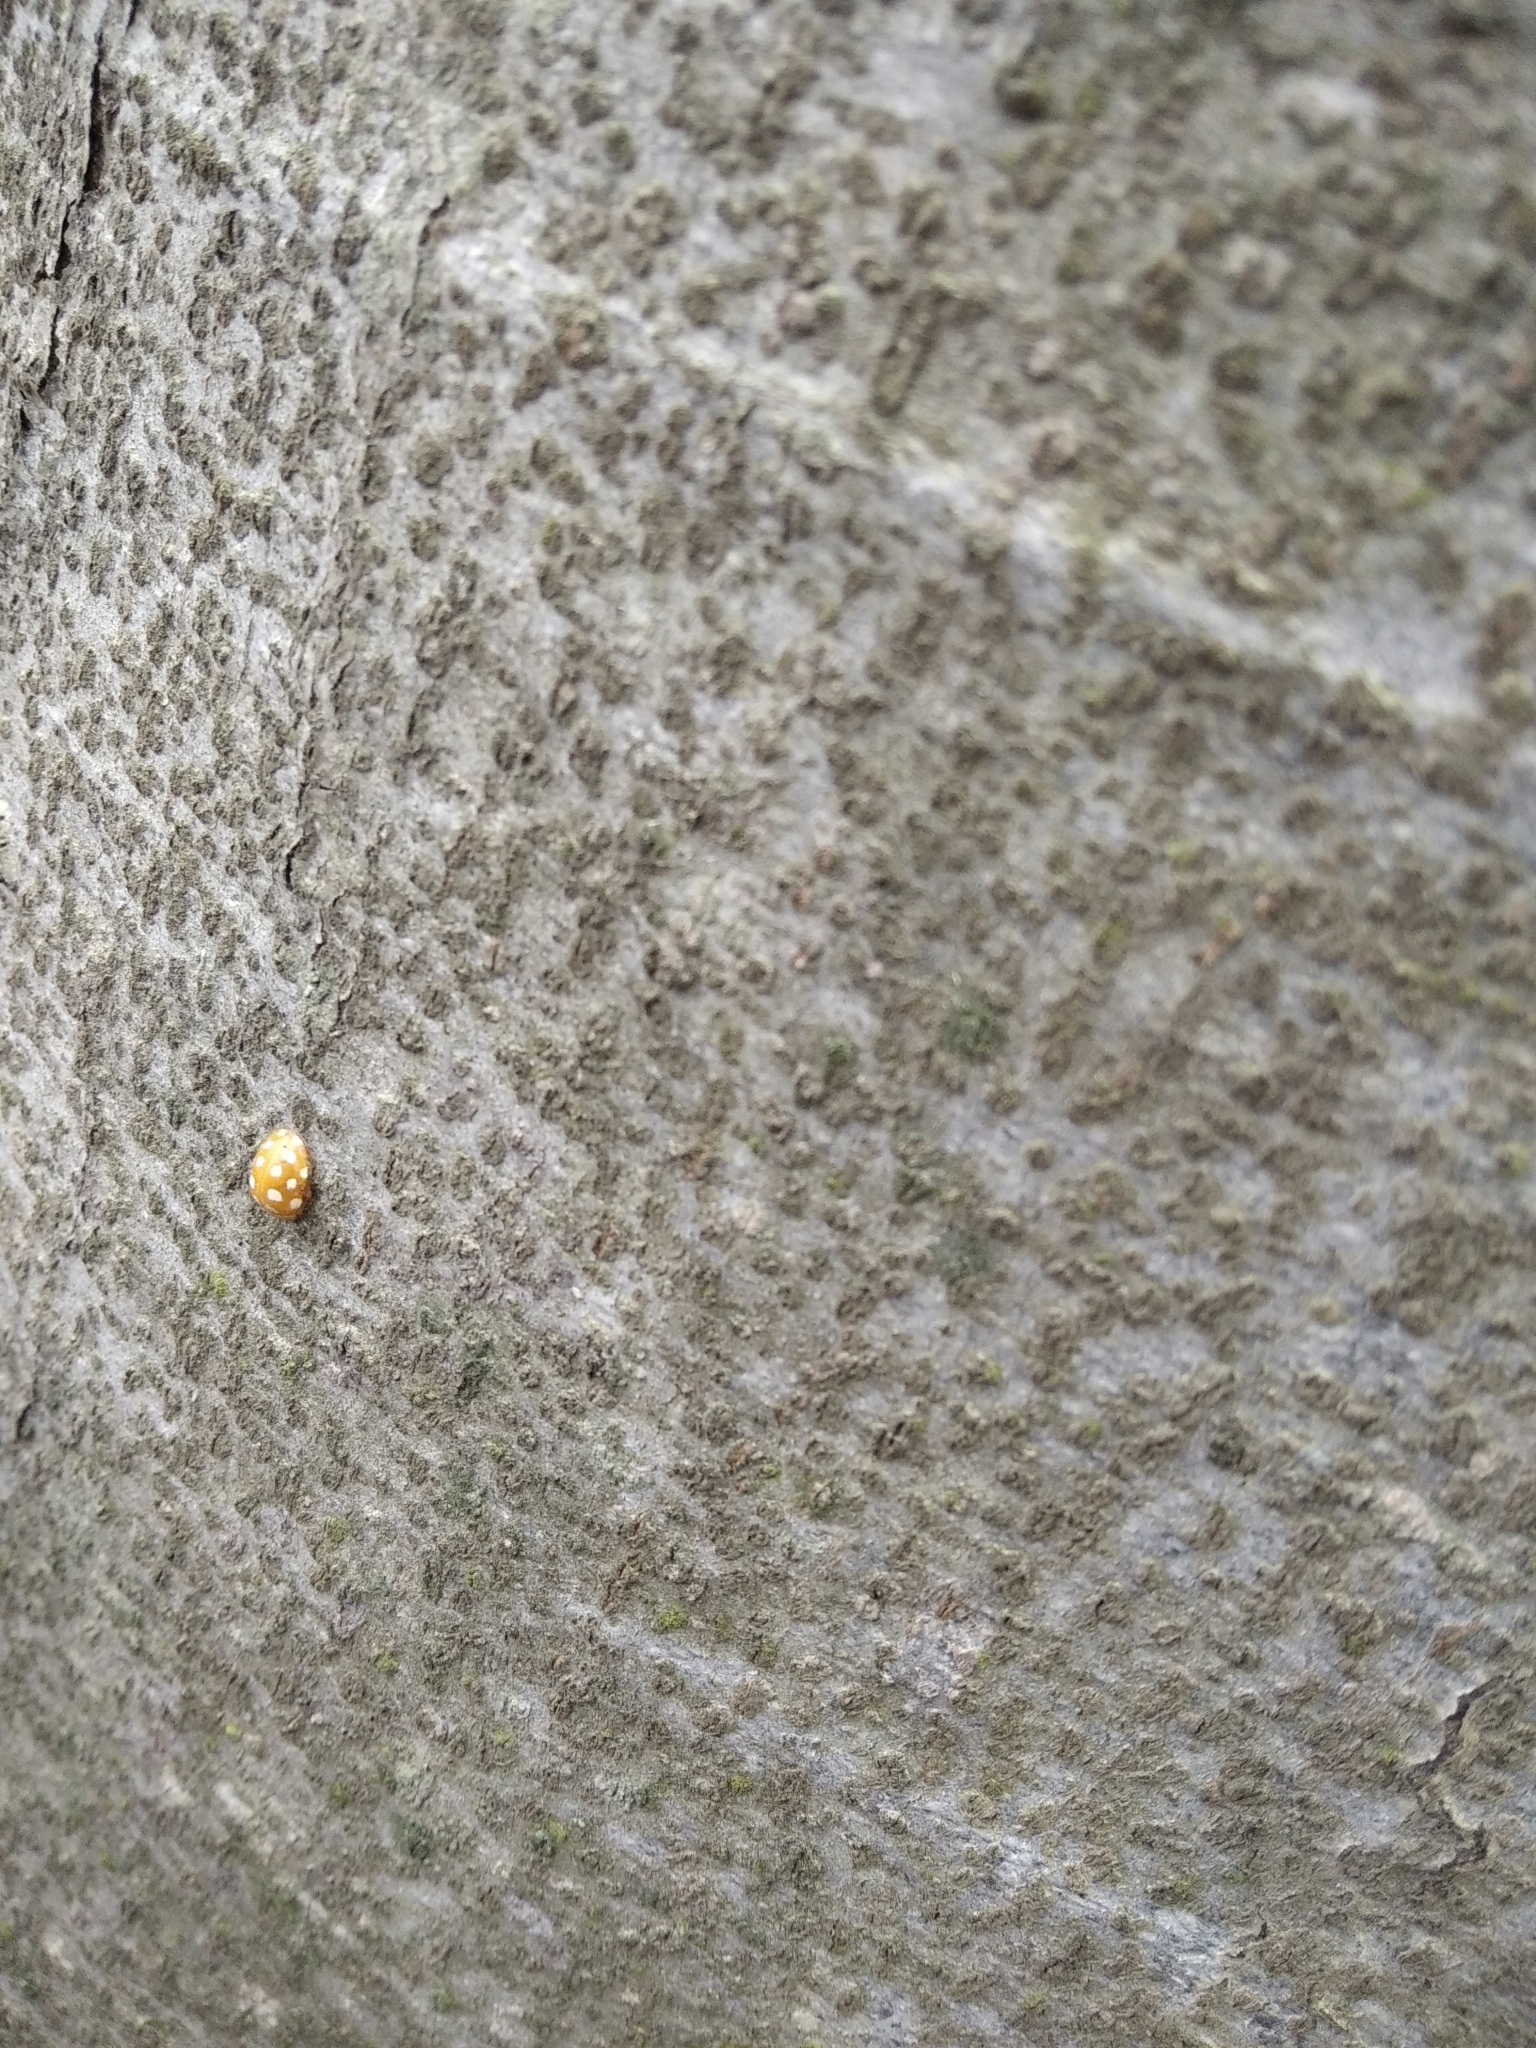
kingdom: Animalia
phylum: Arthropoda
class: Insecta
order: Coleoptera
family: Coccinellidae
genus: Halyzia
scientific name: Halyzia sedecimguttata
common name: Orange ladybird
